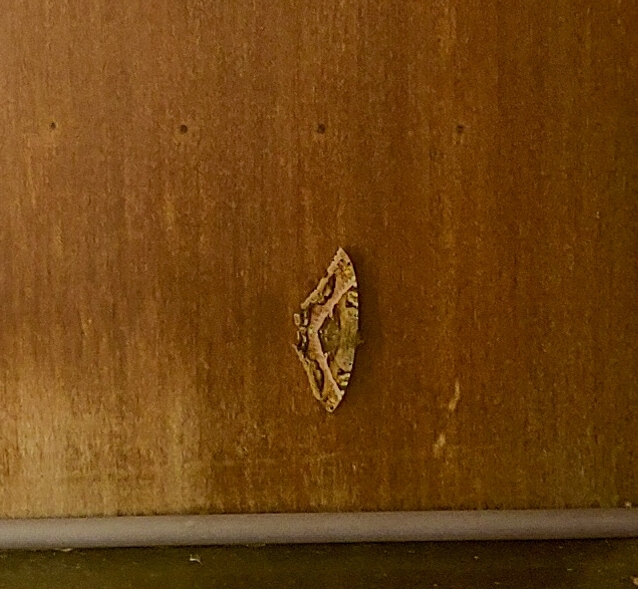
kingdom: Animalia
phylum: Arthropoda
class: Insecta
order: Lepidoptera
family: Erebidae
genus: Ascalapha
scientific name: Ascalapha odorata
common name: Black witch
